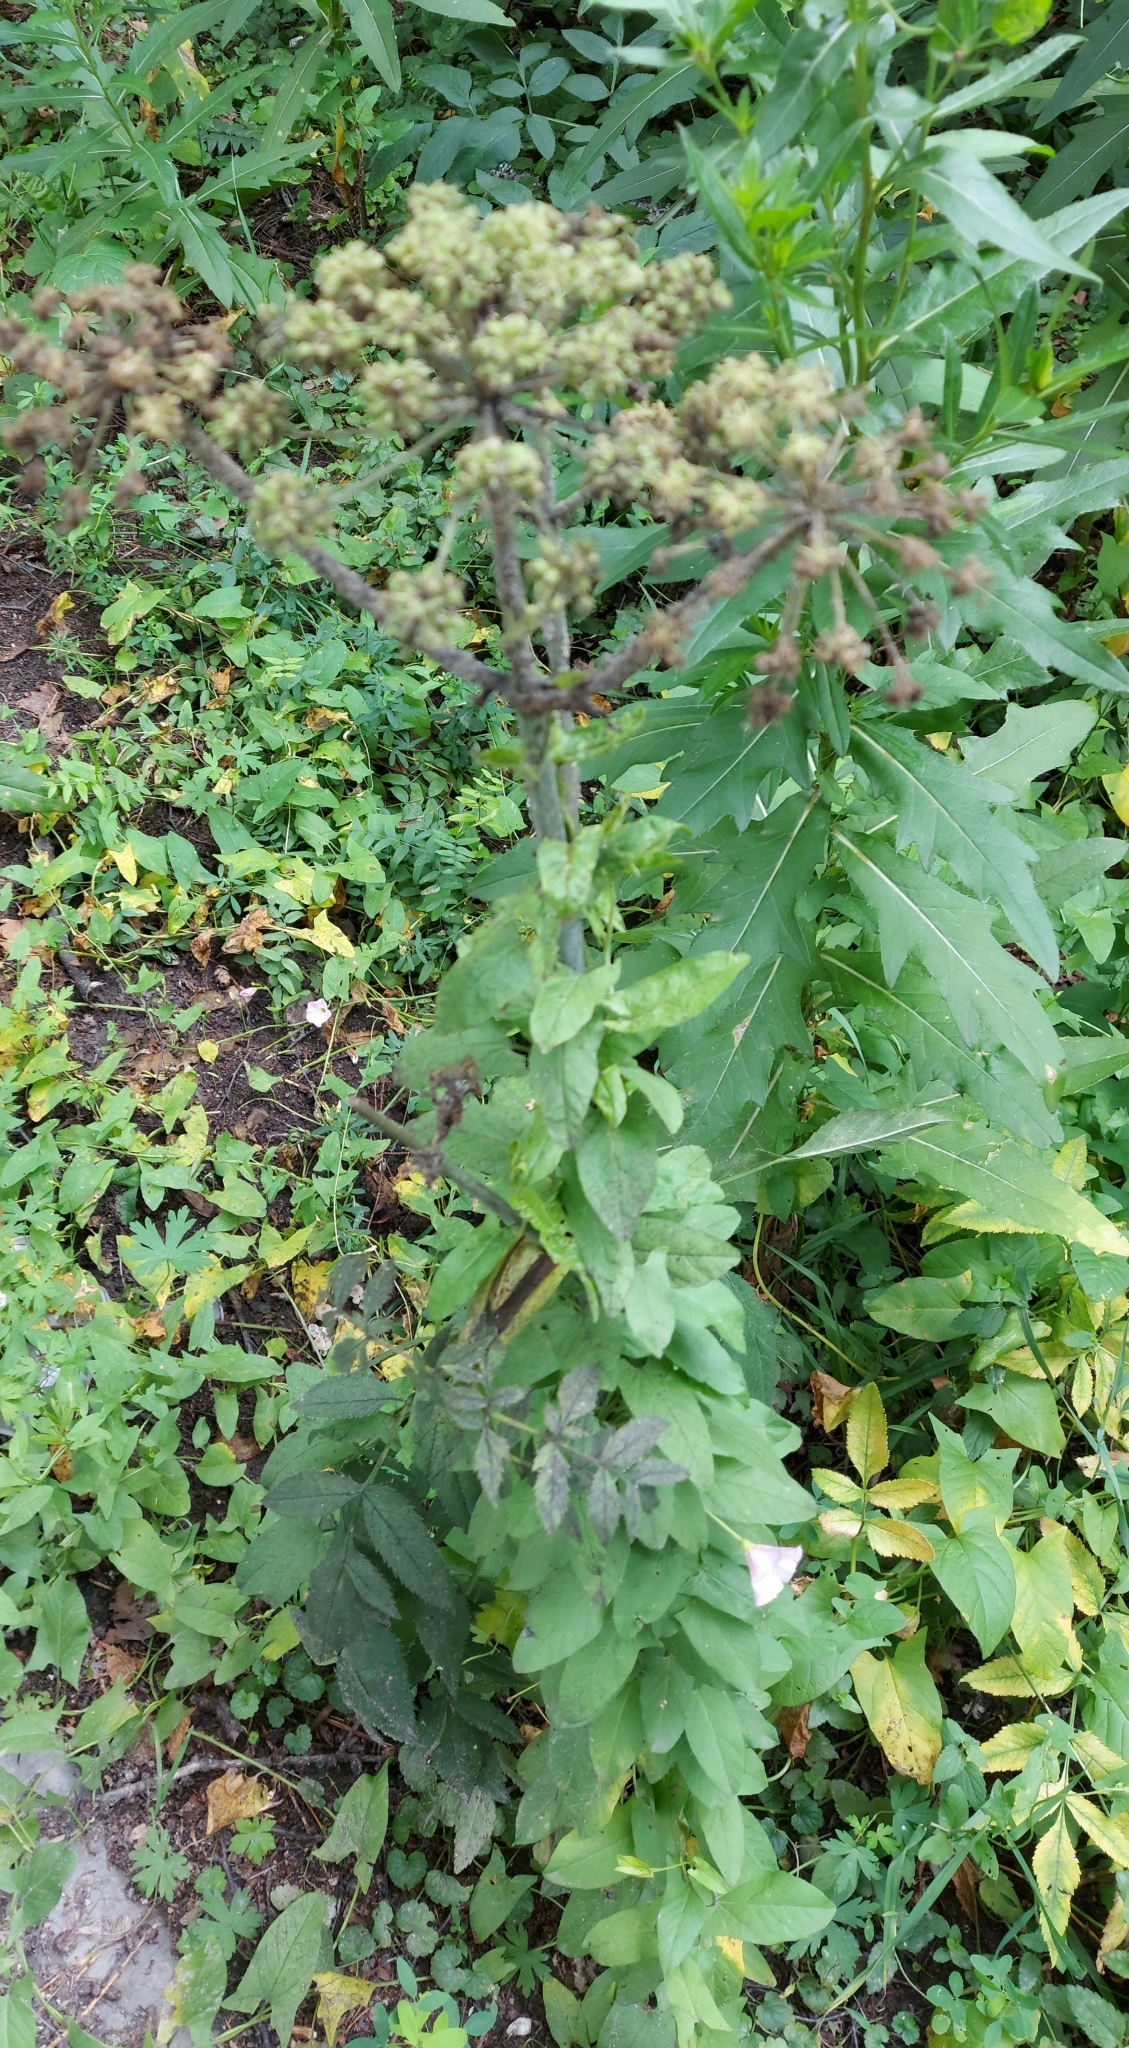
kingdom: Plantae
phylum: Tracheophyta
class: Magnoliopsida
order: Apiales
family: Apiaceae
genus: Angelica
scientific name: Angelica sylvestris
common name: Wild angelica
